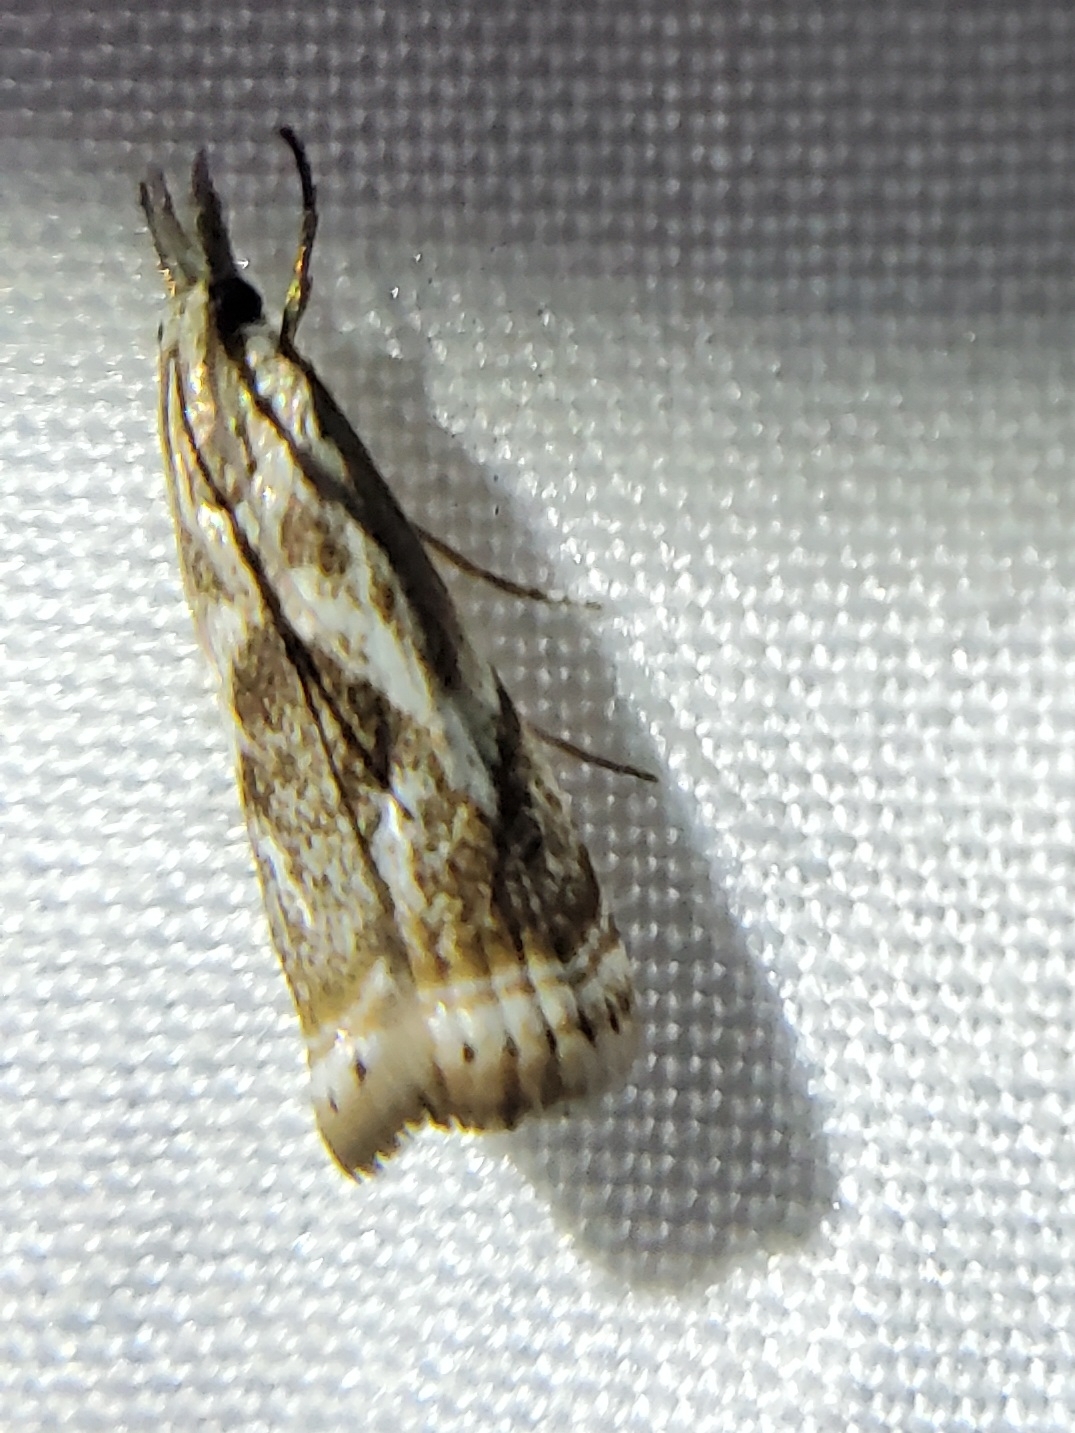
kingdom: Animalia
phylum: Arthropoda
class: Insecta
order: Lepidoptera
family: Crambidae
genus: Microcrambus
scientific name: Microcrambus elegans
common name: Elegant grass-veneer
